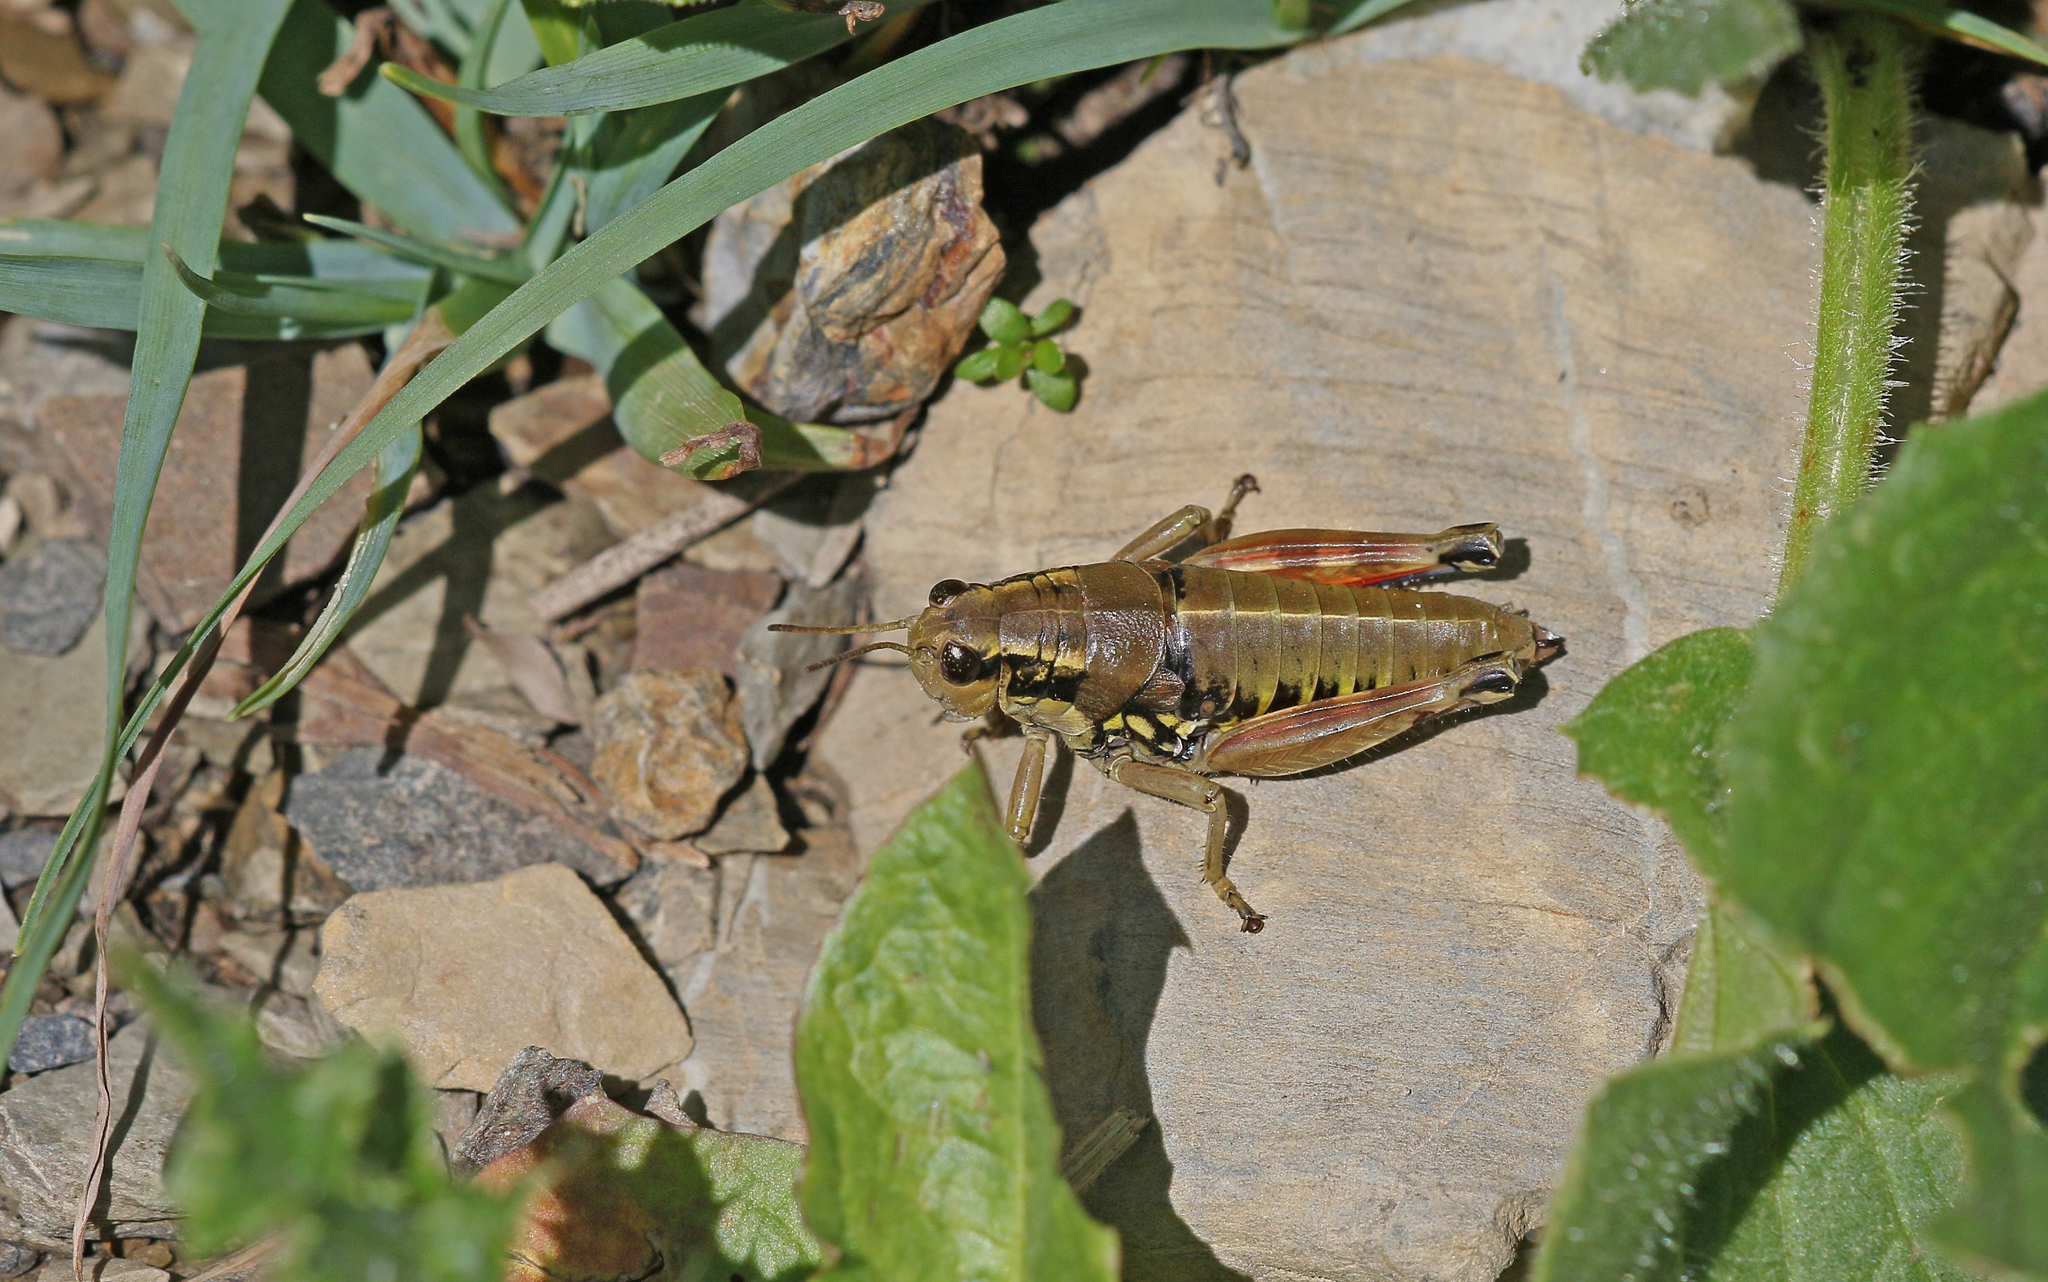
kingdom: Animalia
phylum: Arthropoda
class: Insecta
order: Orthoptera
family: Acrididae
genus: Podisma
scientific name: Podisma dechambrei
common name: Alpes-maritimes mountain grasshopper
